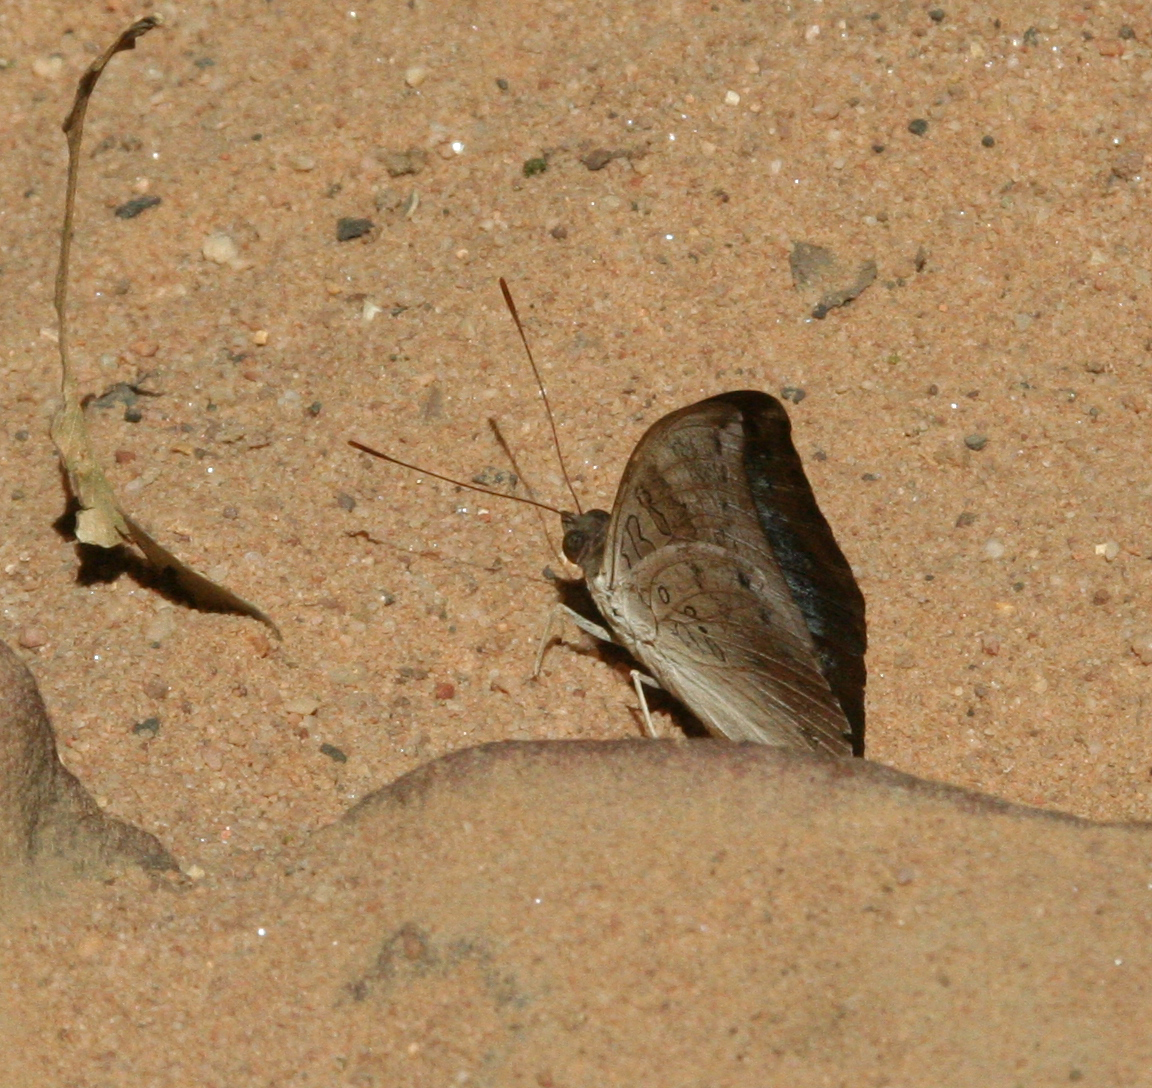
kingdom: Animalia
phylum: Arthropoda
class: Insecta
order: Lepidoptera
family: Nymphalidae
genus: Euthalia
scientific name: Euthalia monina
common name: Powdered baron
